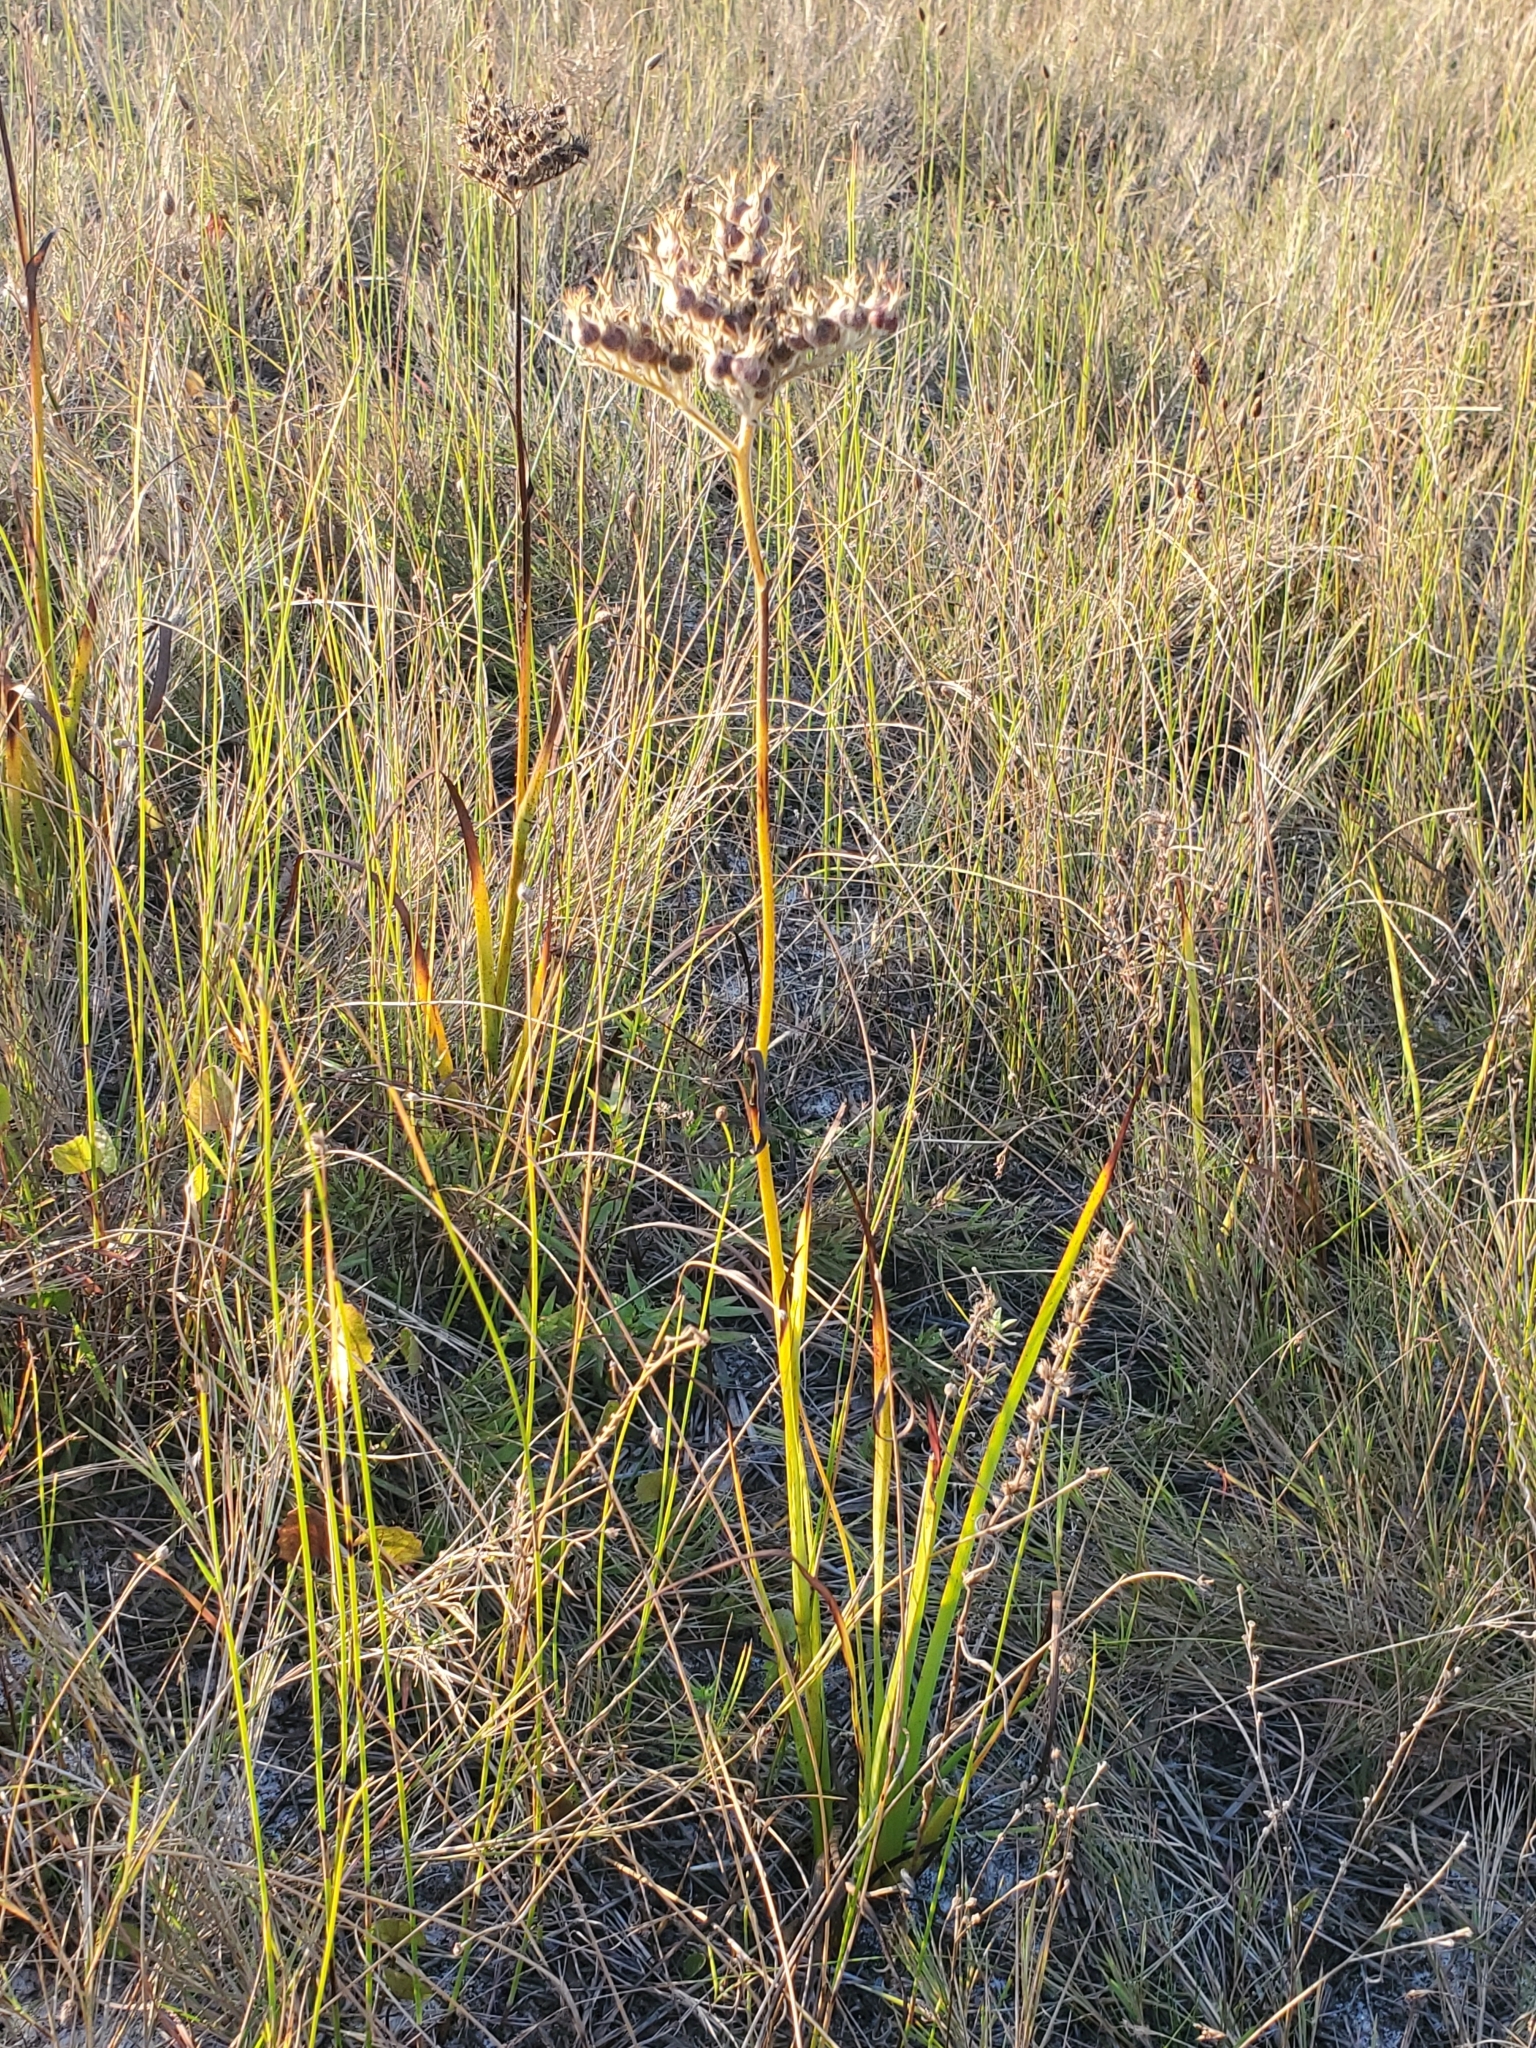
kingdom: Plantae
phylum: Tracheophyta
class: Liliopsida
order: Commelinales
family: Haemodoraceae
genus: Lachnanthes
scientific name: Lachnanthes caroliana
